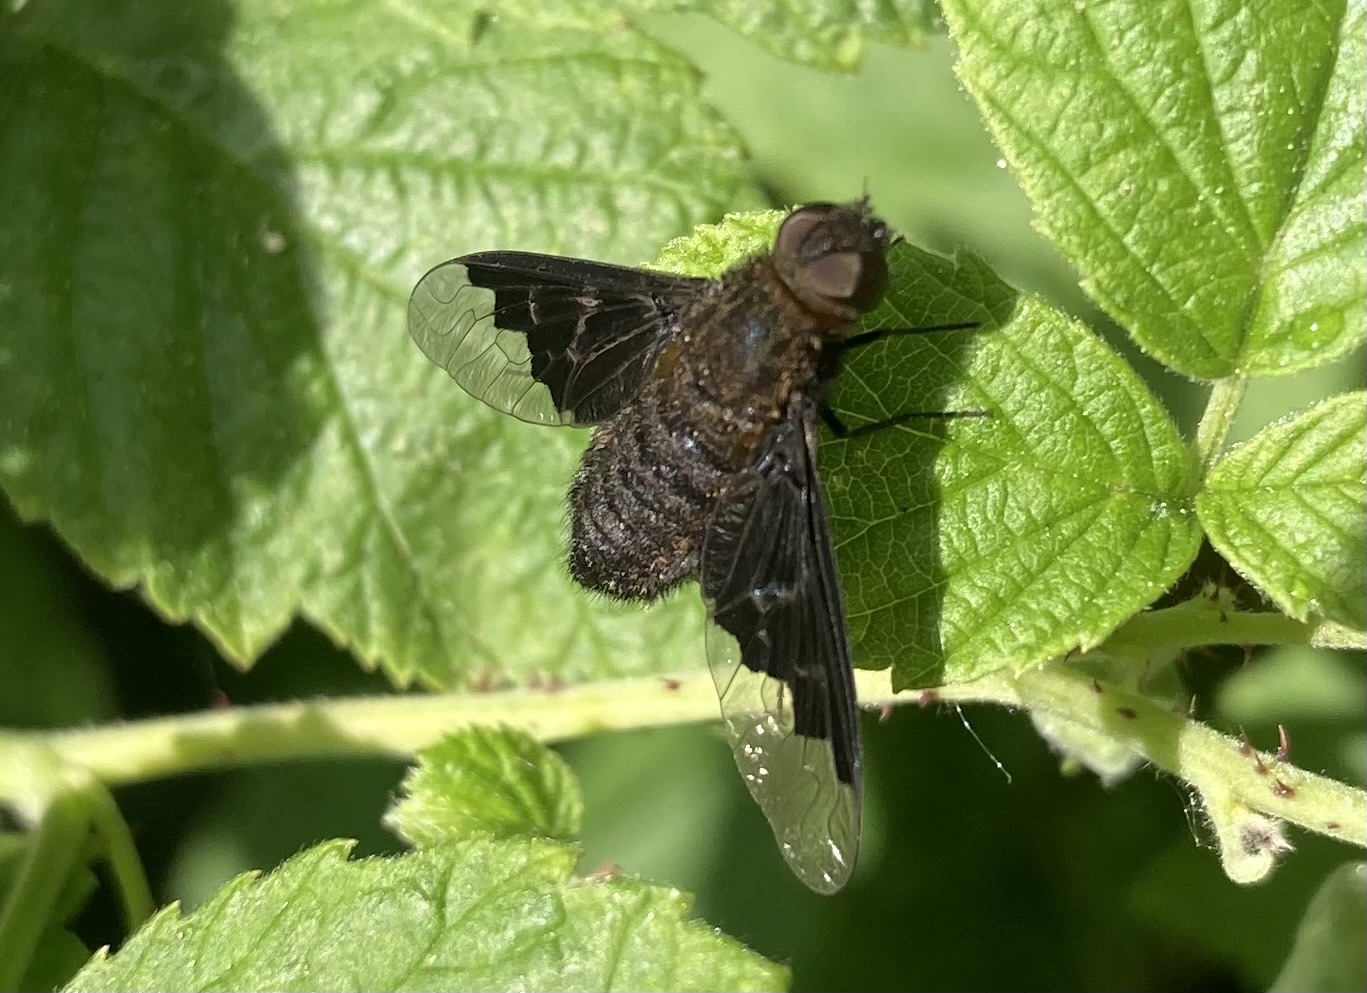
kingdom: Animalia
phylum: Arthropoda
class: Insecta
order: Diptera
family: Bombyliidae
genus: Hemipenthes
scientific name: Hemipenthes morio
